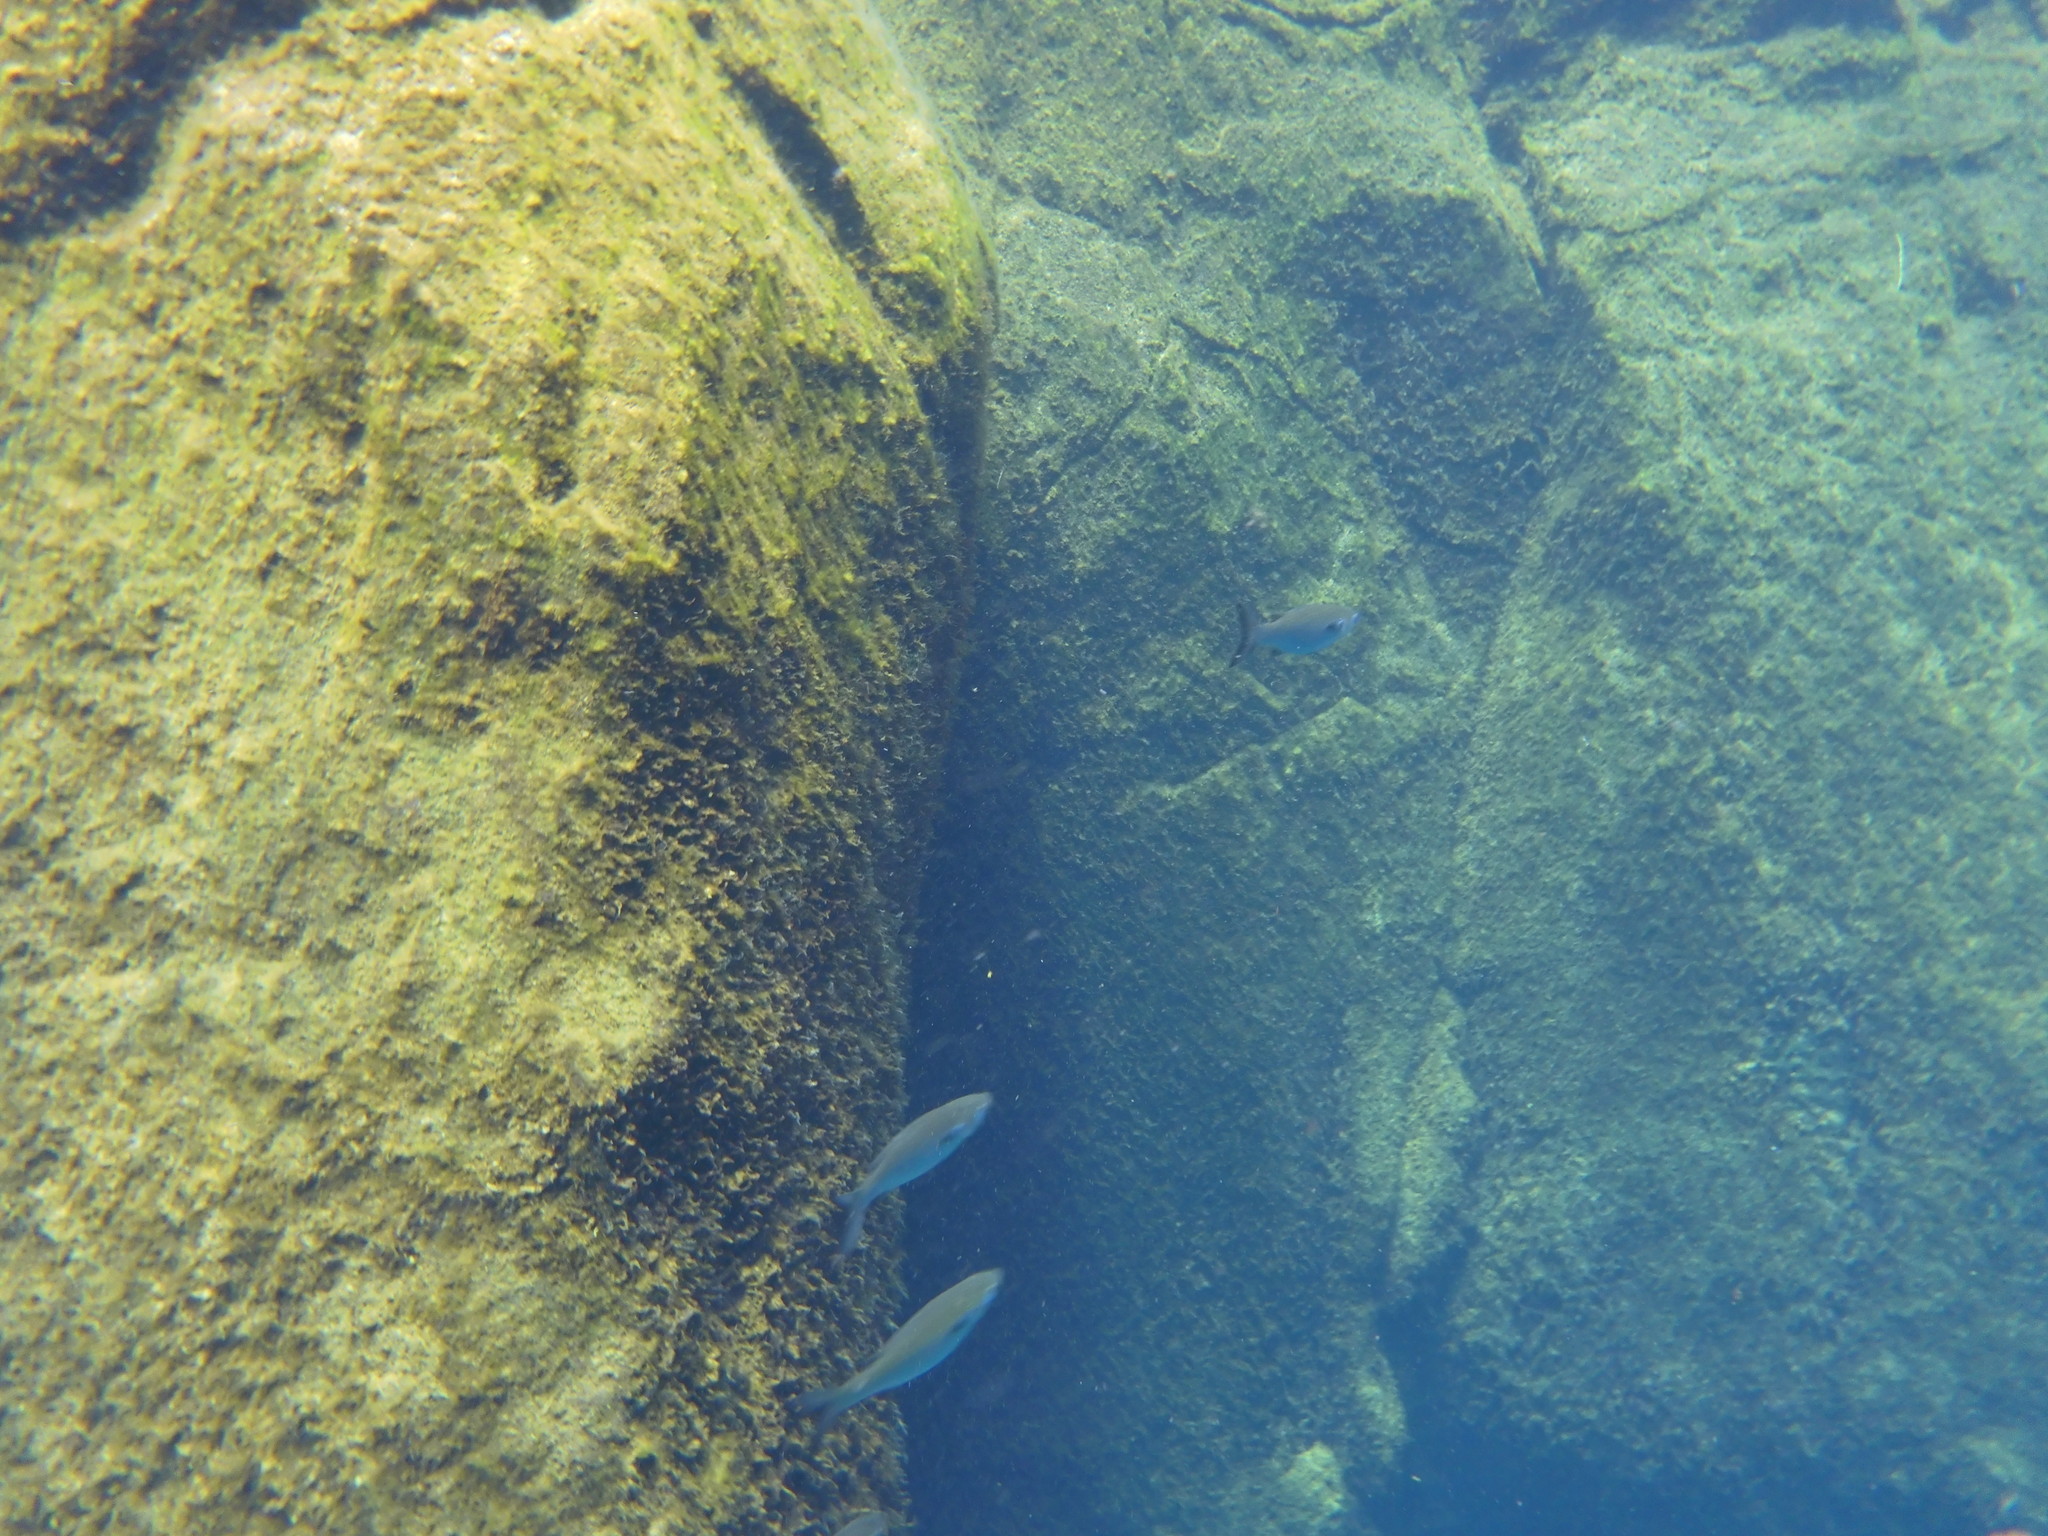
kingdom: Animalia
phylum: Chordata
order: Mugiliformes
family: Mugilidae
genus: Mugil
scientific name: Mugil cephalus
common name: Grey mullet
